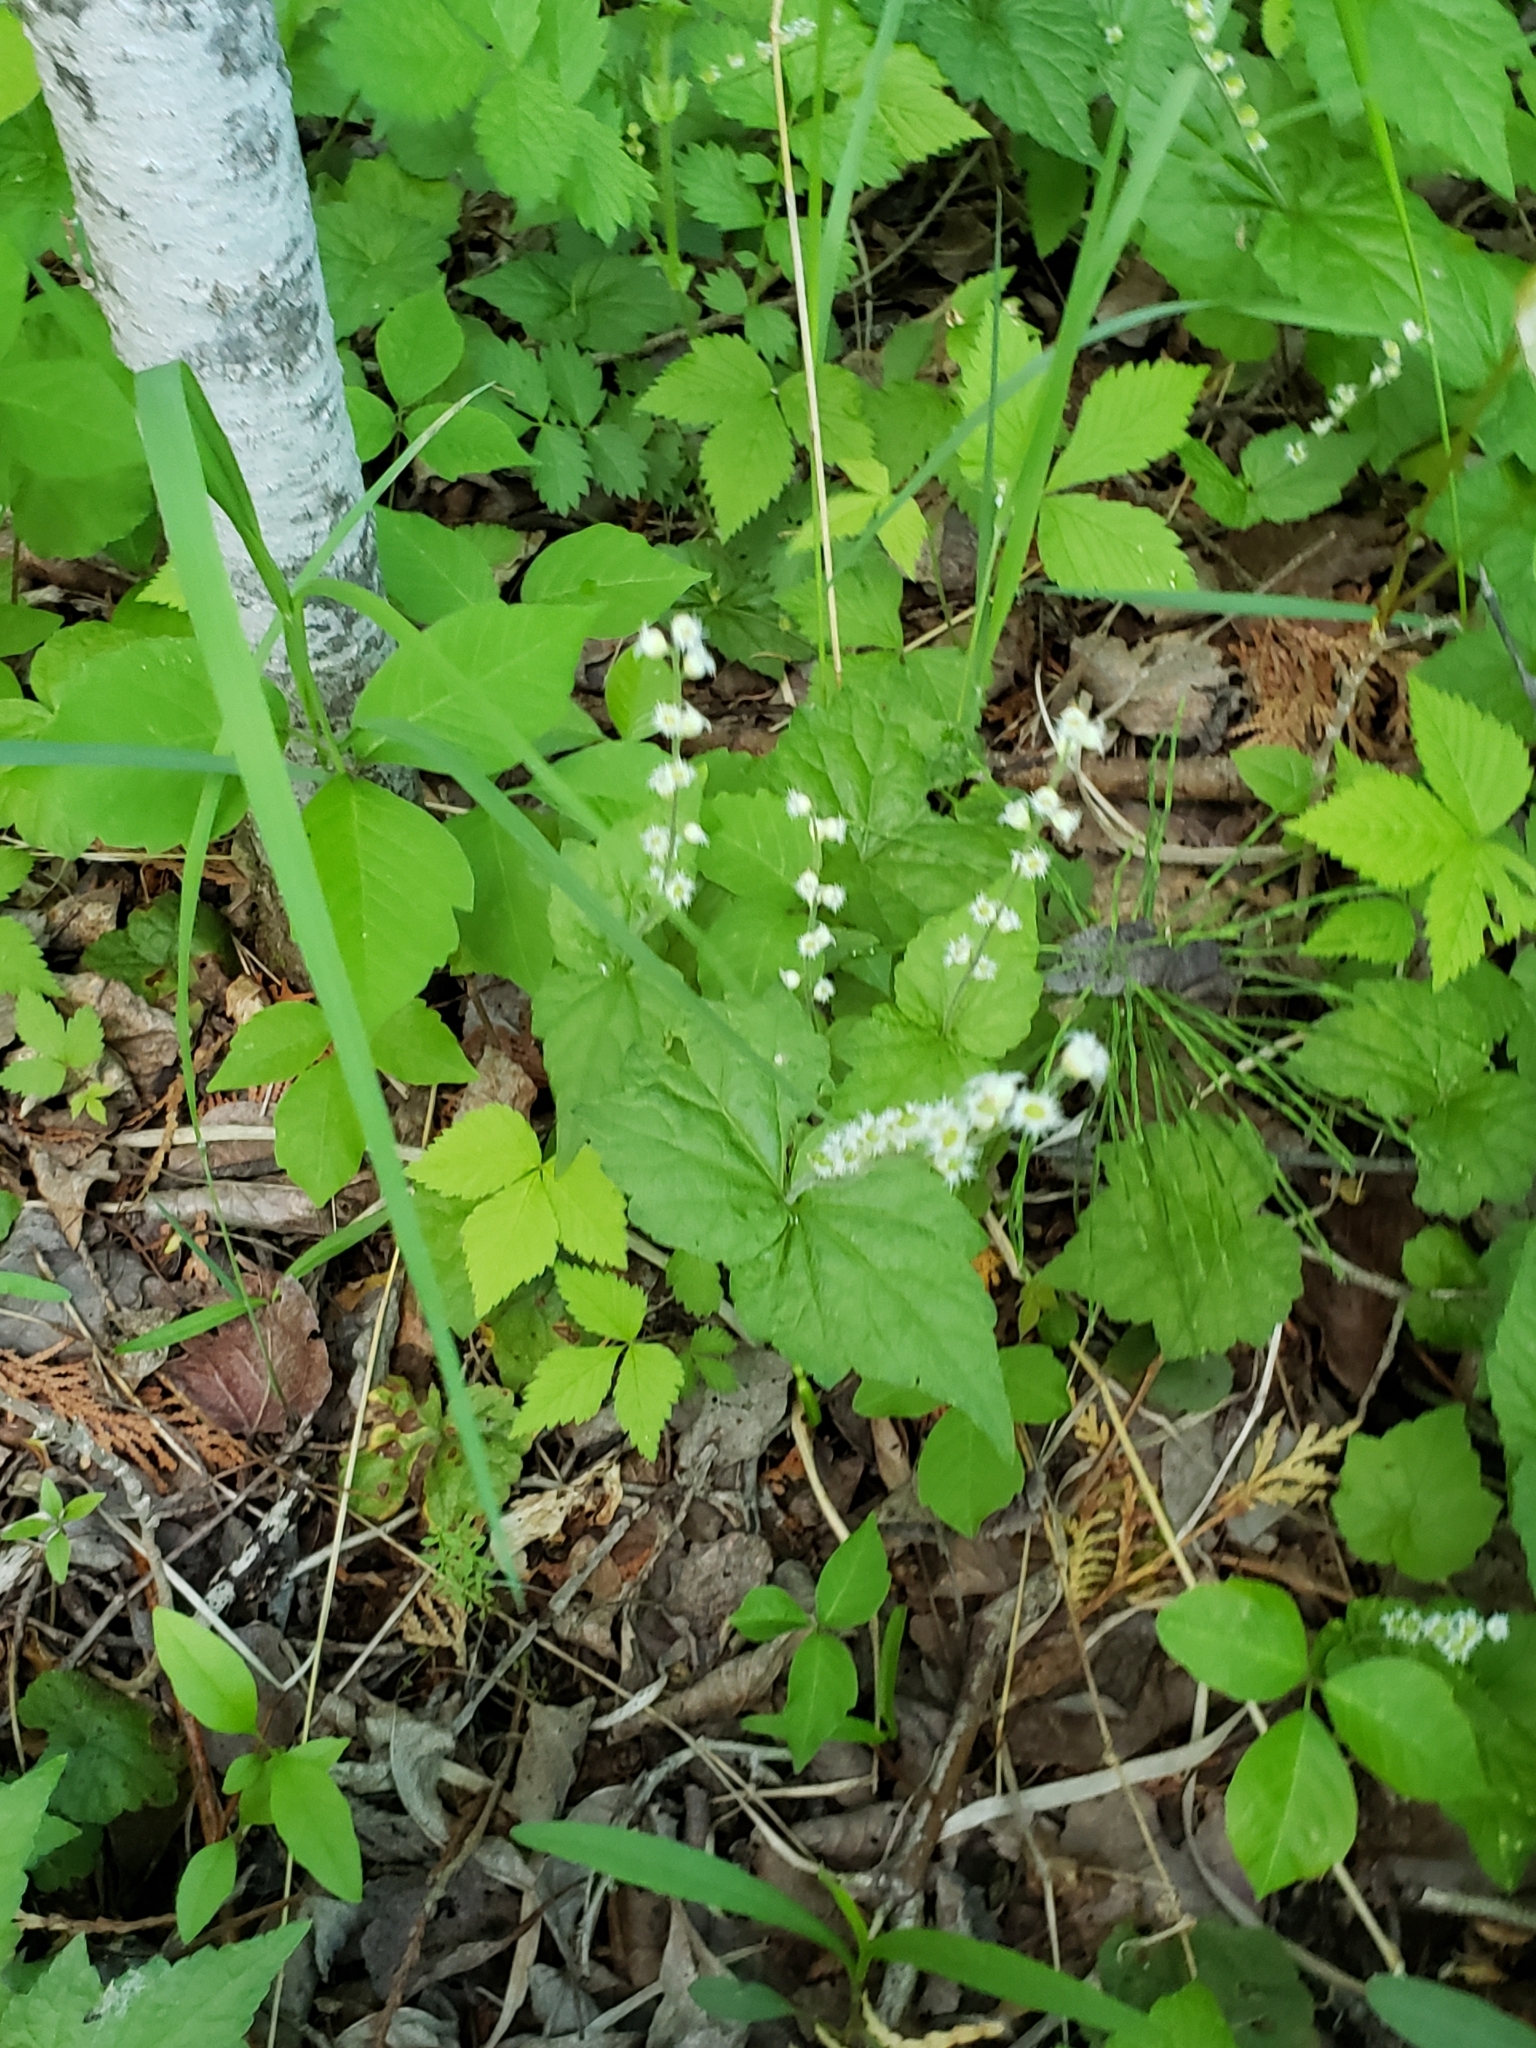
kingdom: Plantae
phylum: Tracheophyta
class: Magnoliopsida
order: Saxifragales
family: Saxifragaceae
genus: Mitella
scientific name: Mitella diphylla
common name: Coolwort
